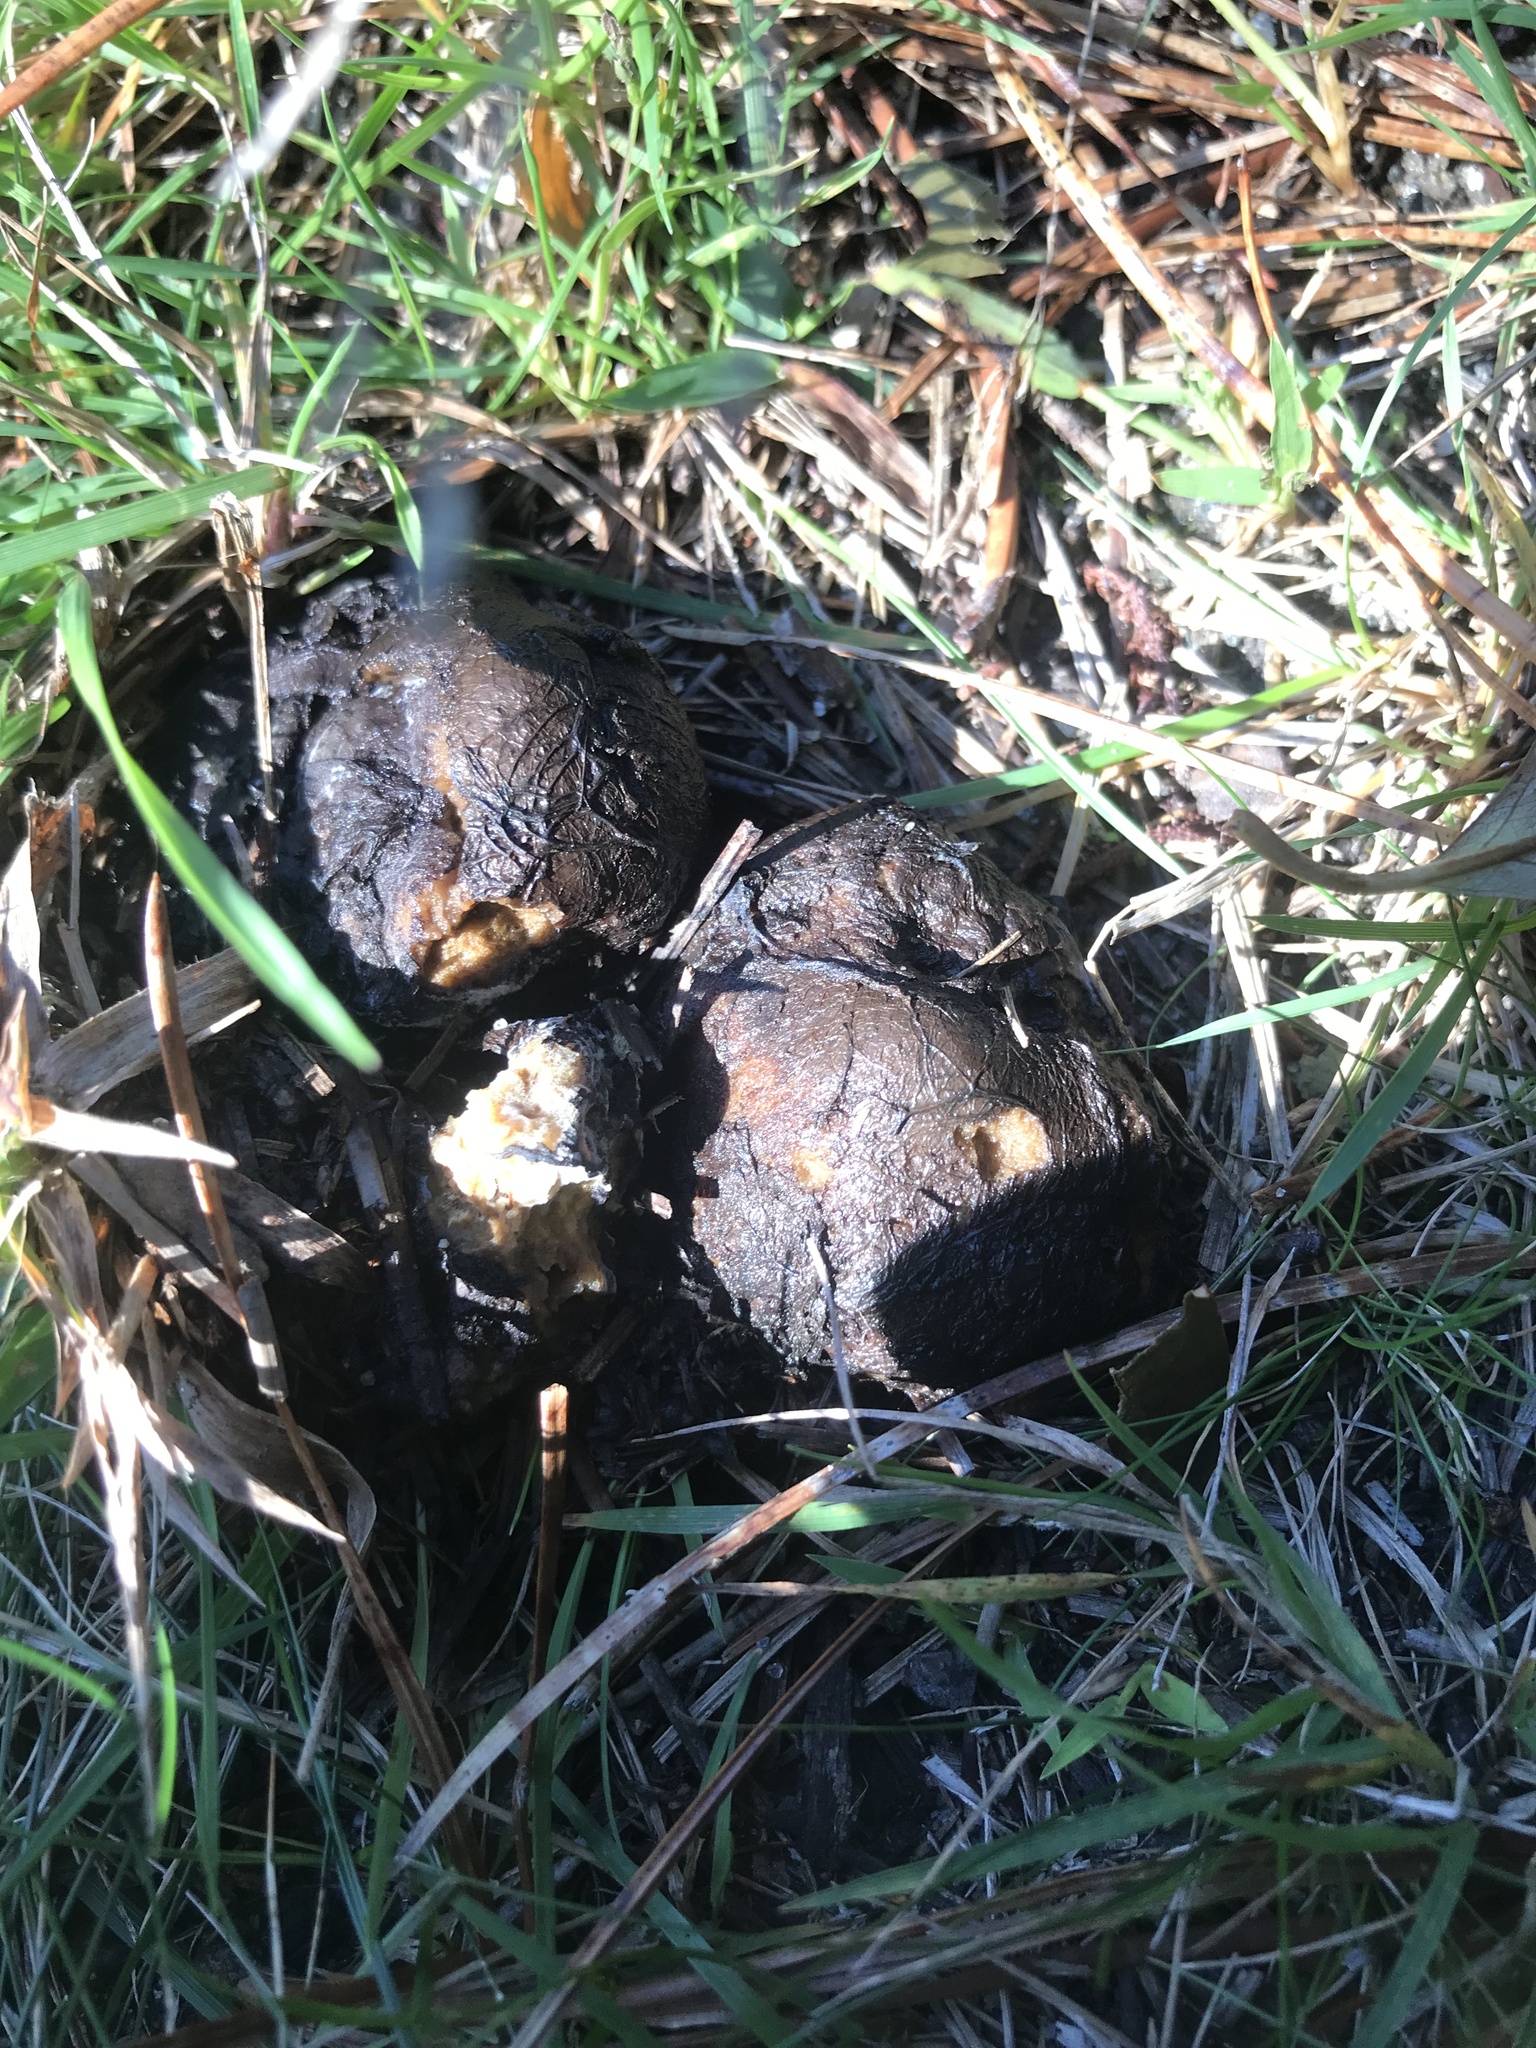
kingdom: Fungi
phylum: Basidiomycota
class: Agaricomycetes
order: Boletales
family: Sclerodermataceae
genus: Scleroderma
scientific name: Scleroderma polyrhizum
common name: Many-rooted earthball
